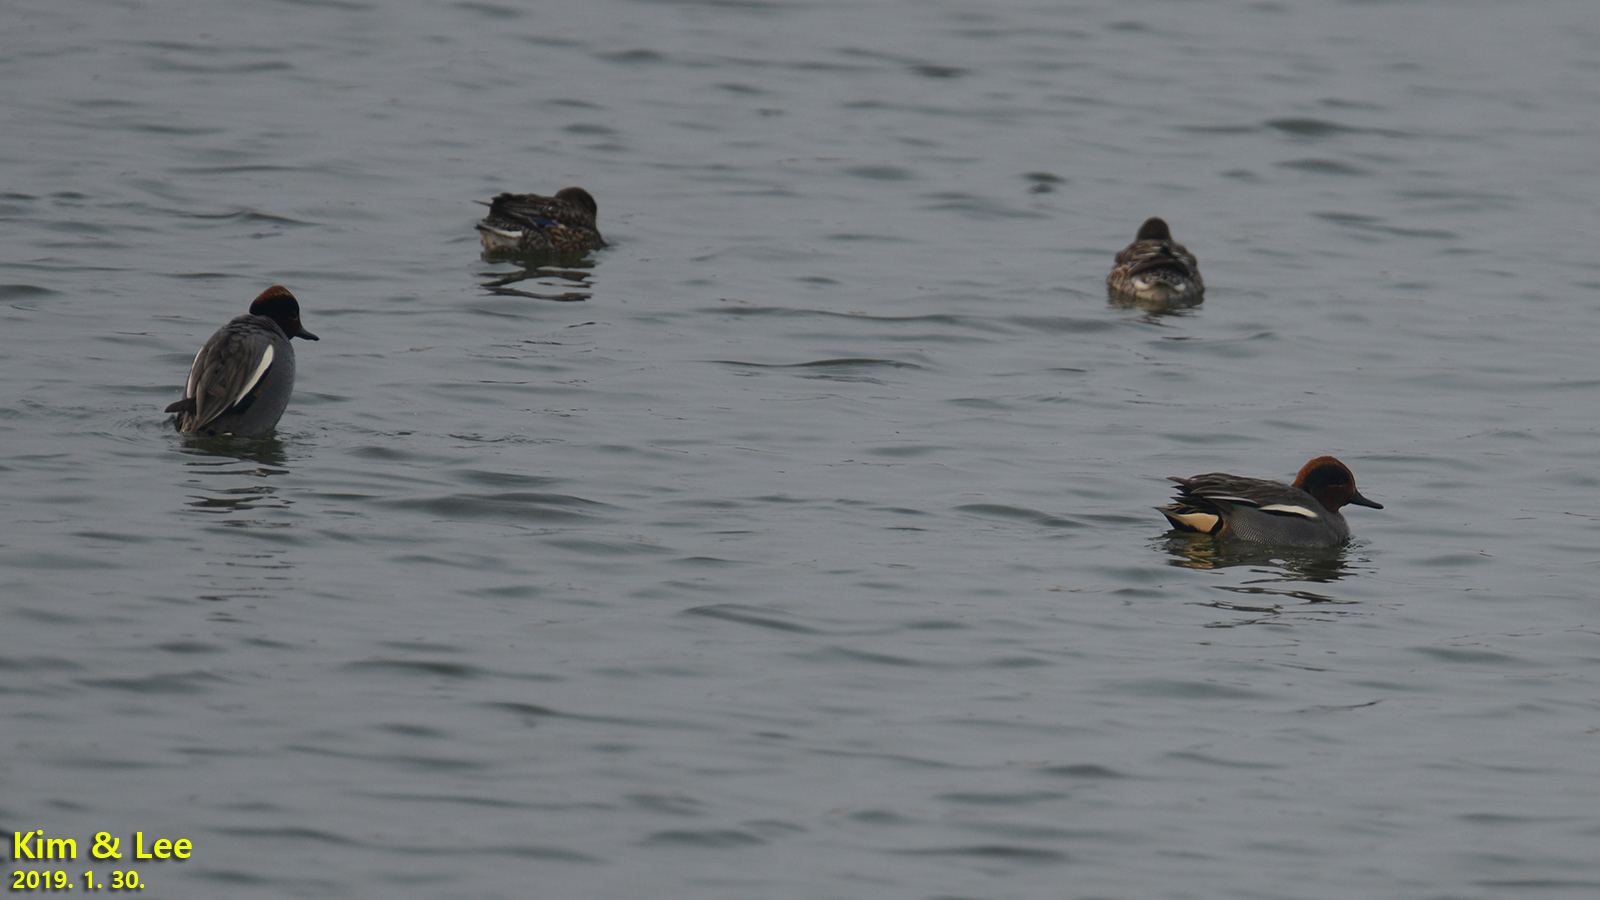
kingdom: Animalia
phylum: Chordata
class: Aves
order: Anseriformes
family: Anatidae
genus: Anas
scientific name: Anas crecca
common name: Eurasian teal
